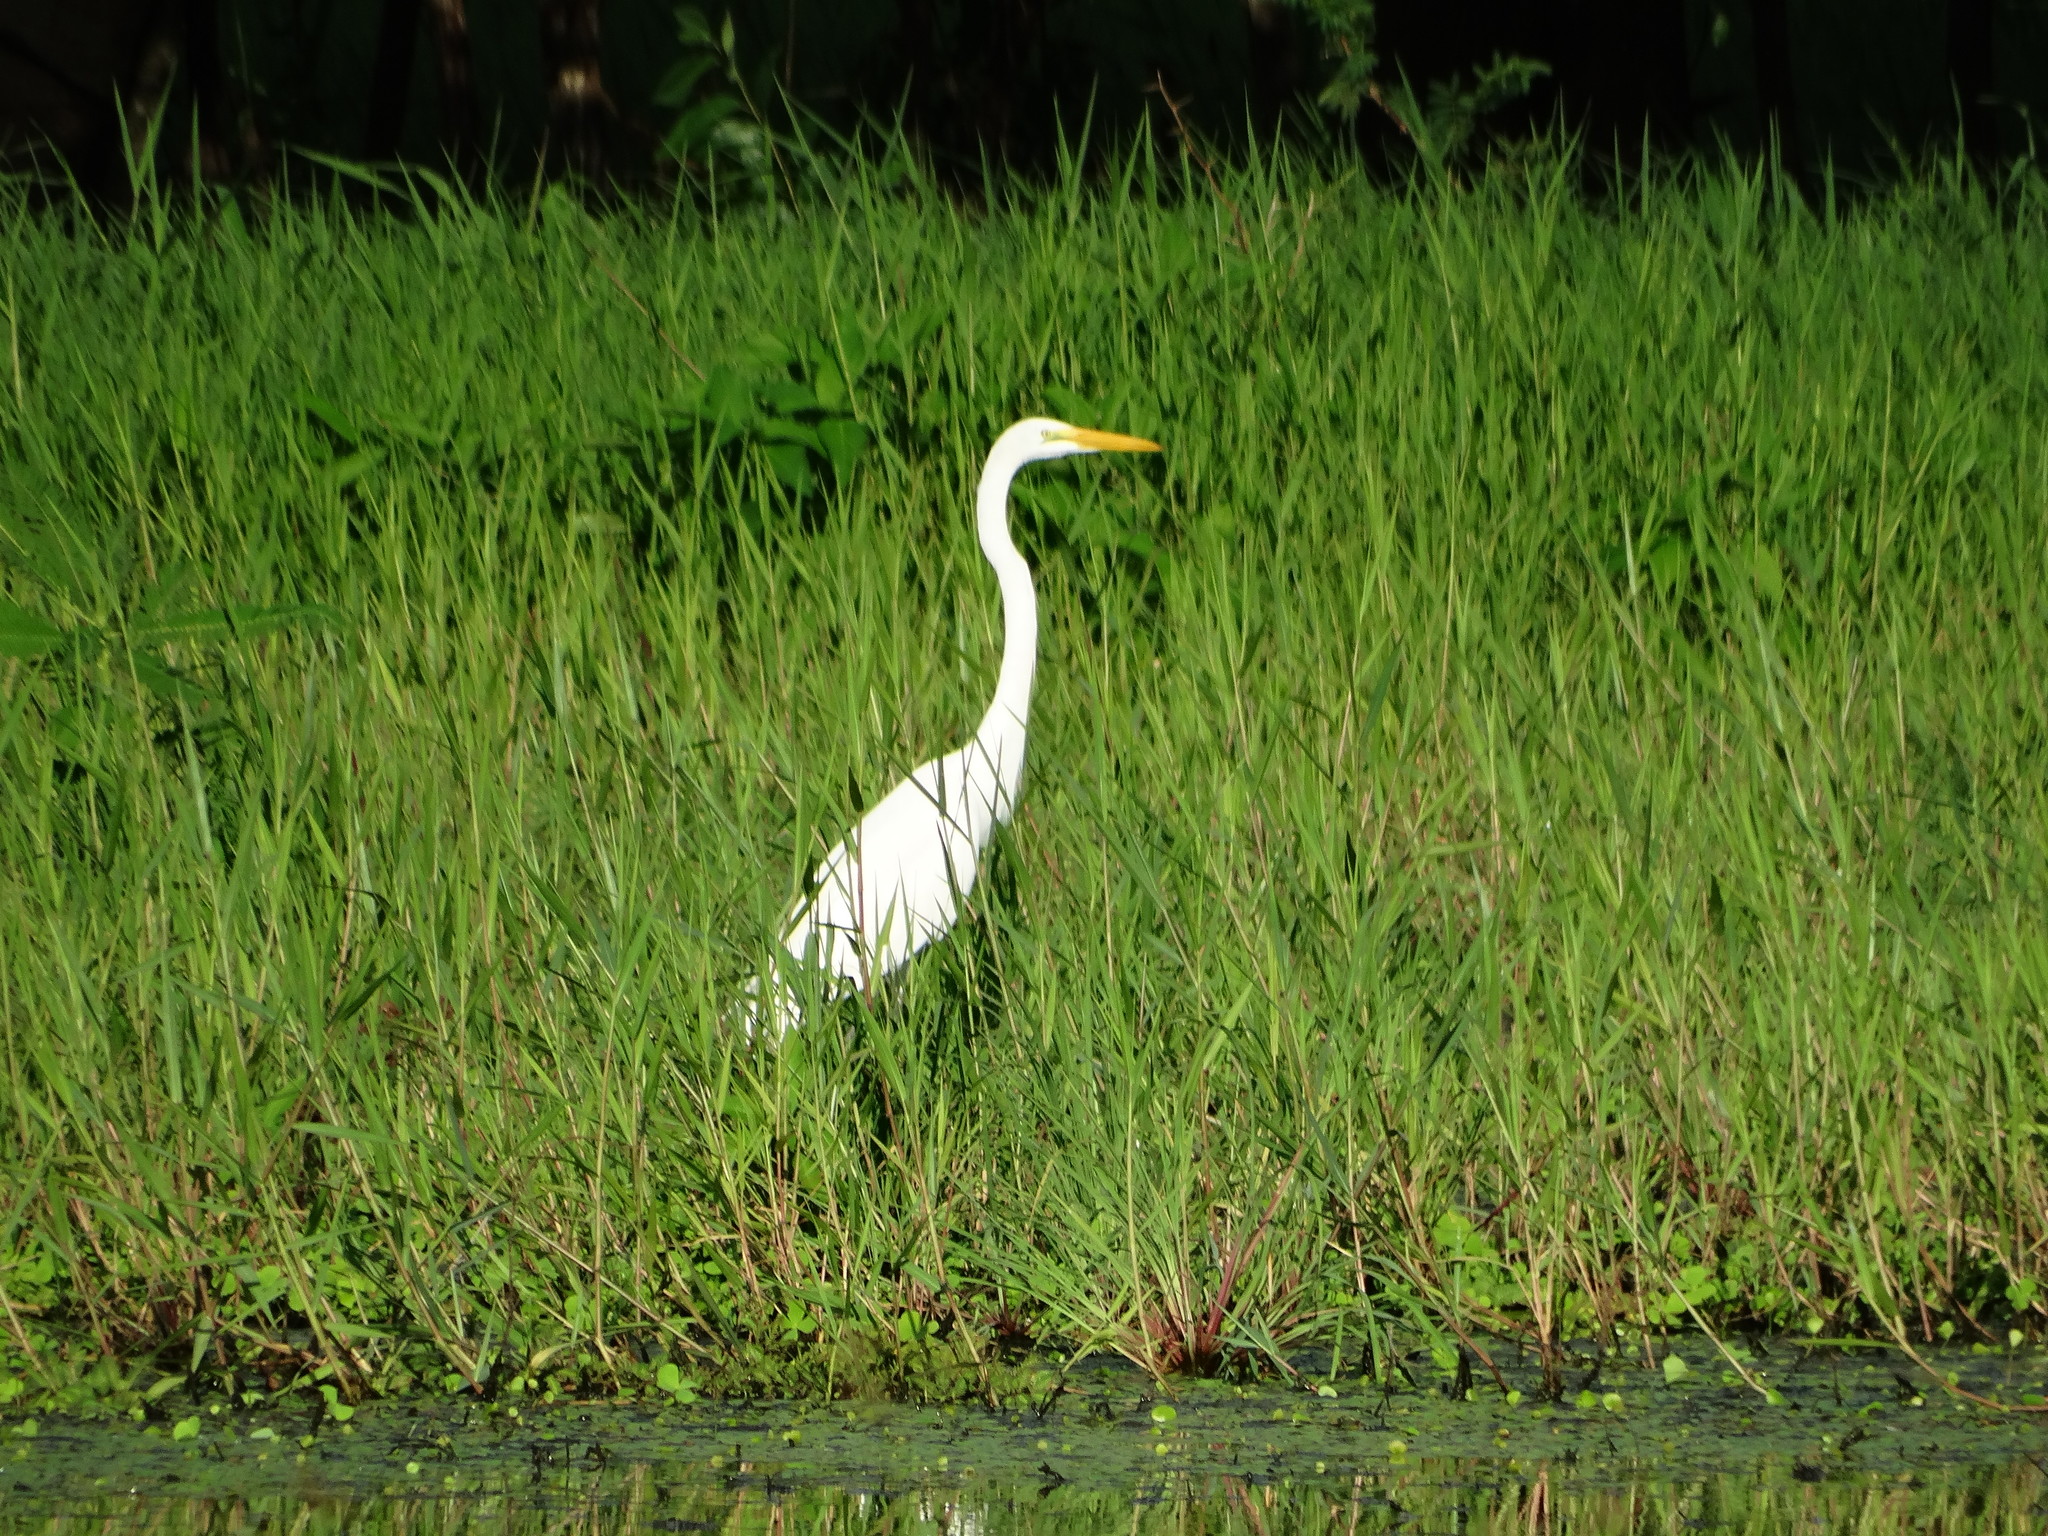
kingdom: Animalia
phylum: Chordata
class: Aves
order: Pelecaniformes
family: Ardeidae
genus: Ardea
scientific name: Ardea alba
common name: Great egret
